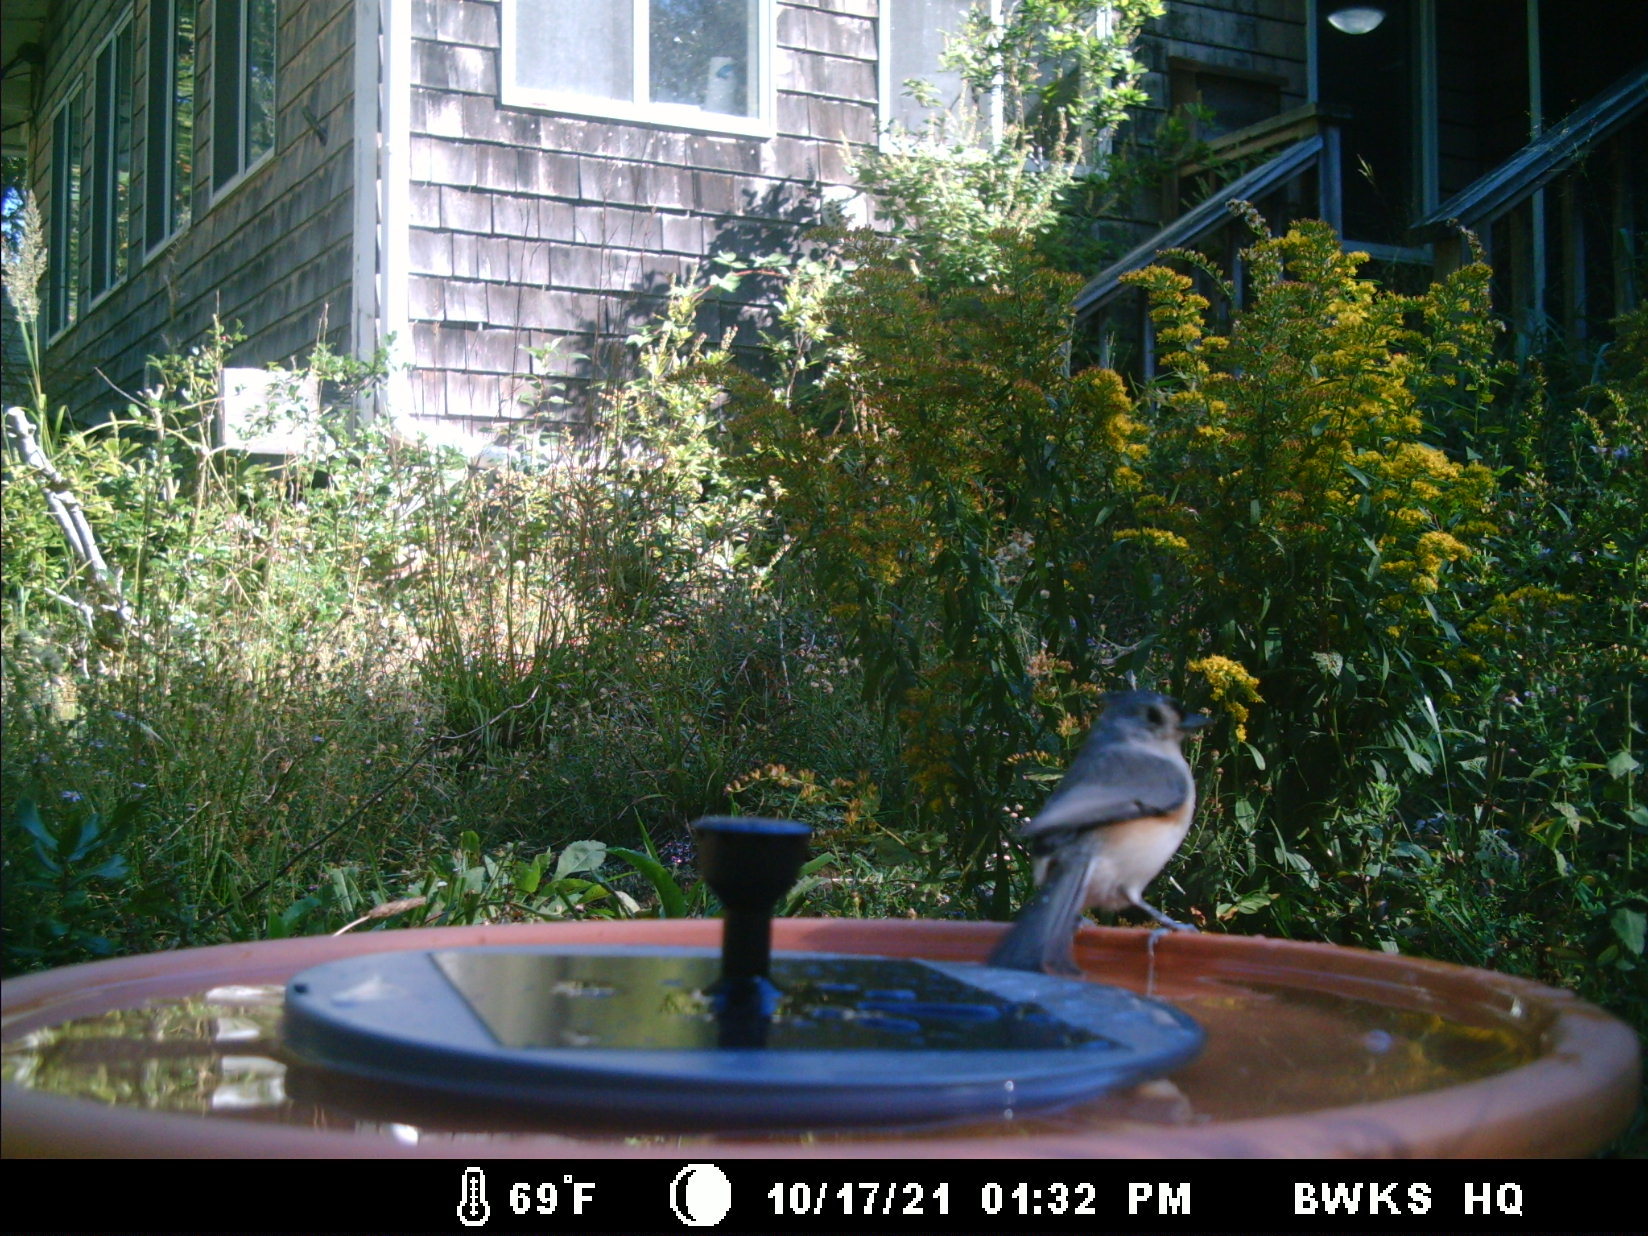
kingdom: Animalia
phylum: Chordata
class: Aves
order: Passeriformes
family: Paridae
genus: Baeolophus
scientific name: Baeolophus bicolor
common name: Tufted titmouse
